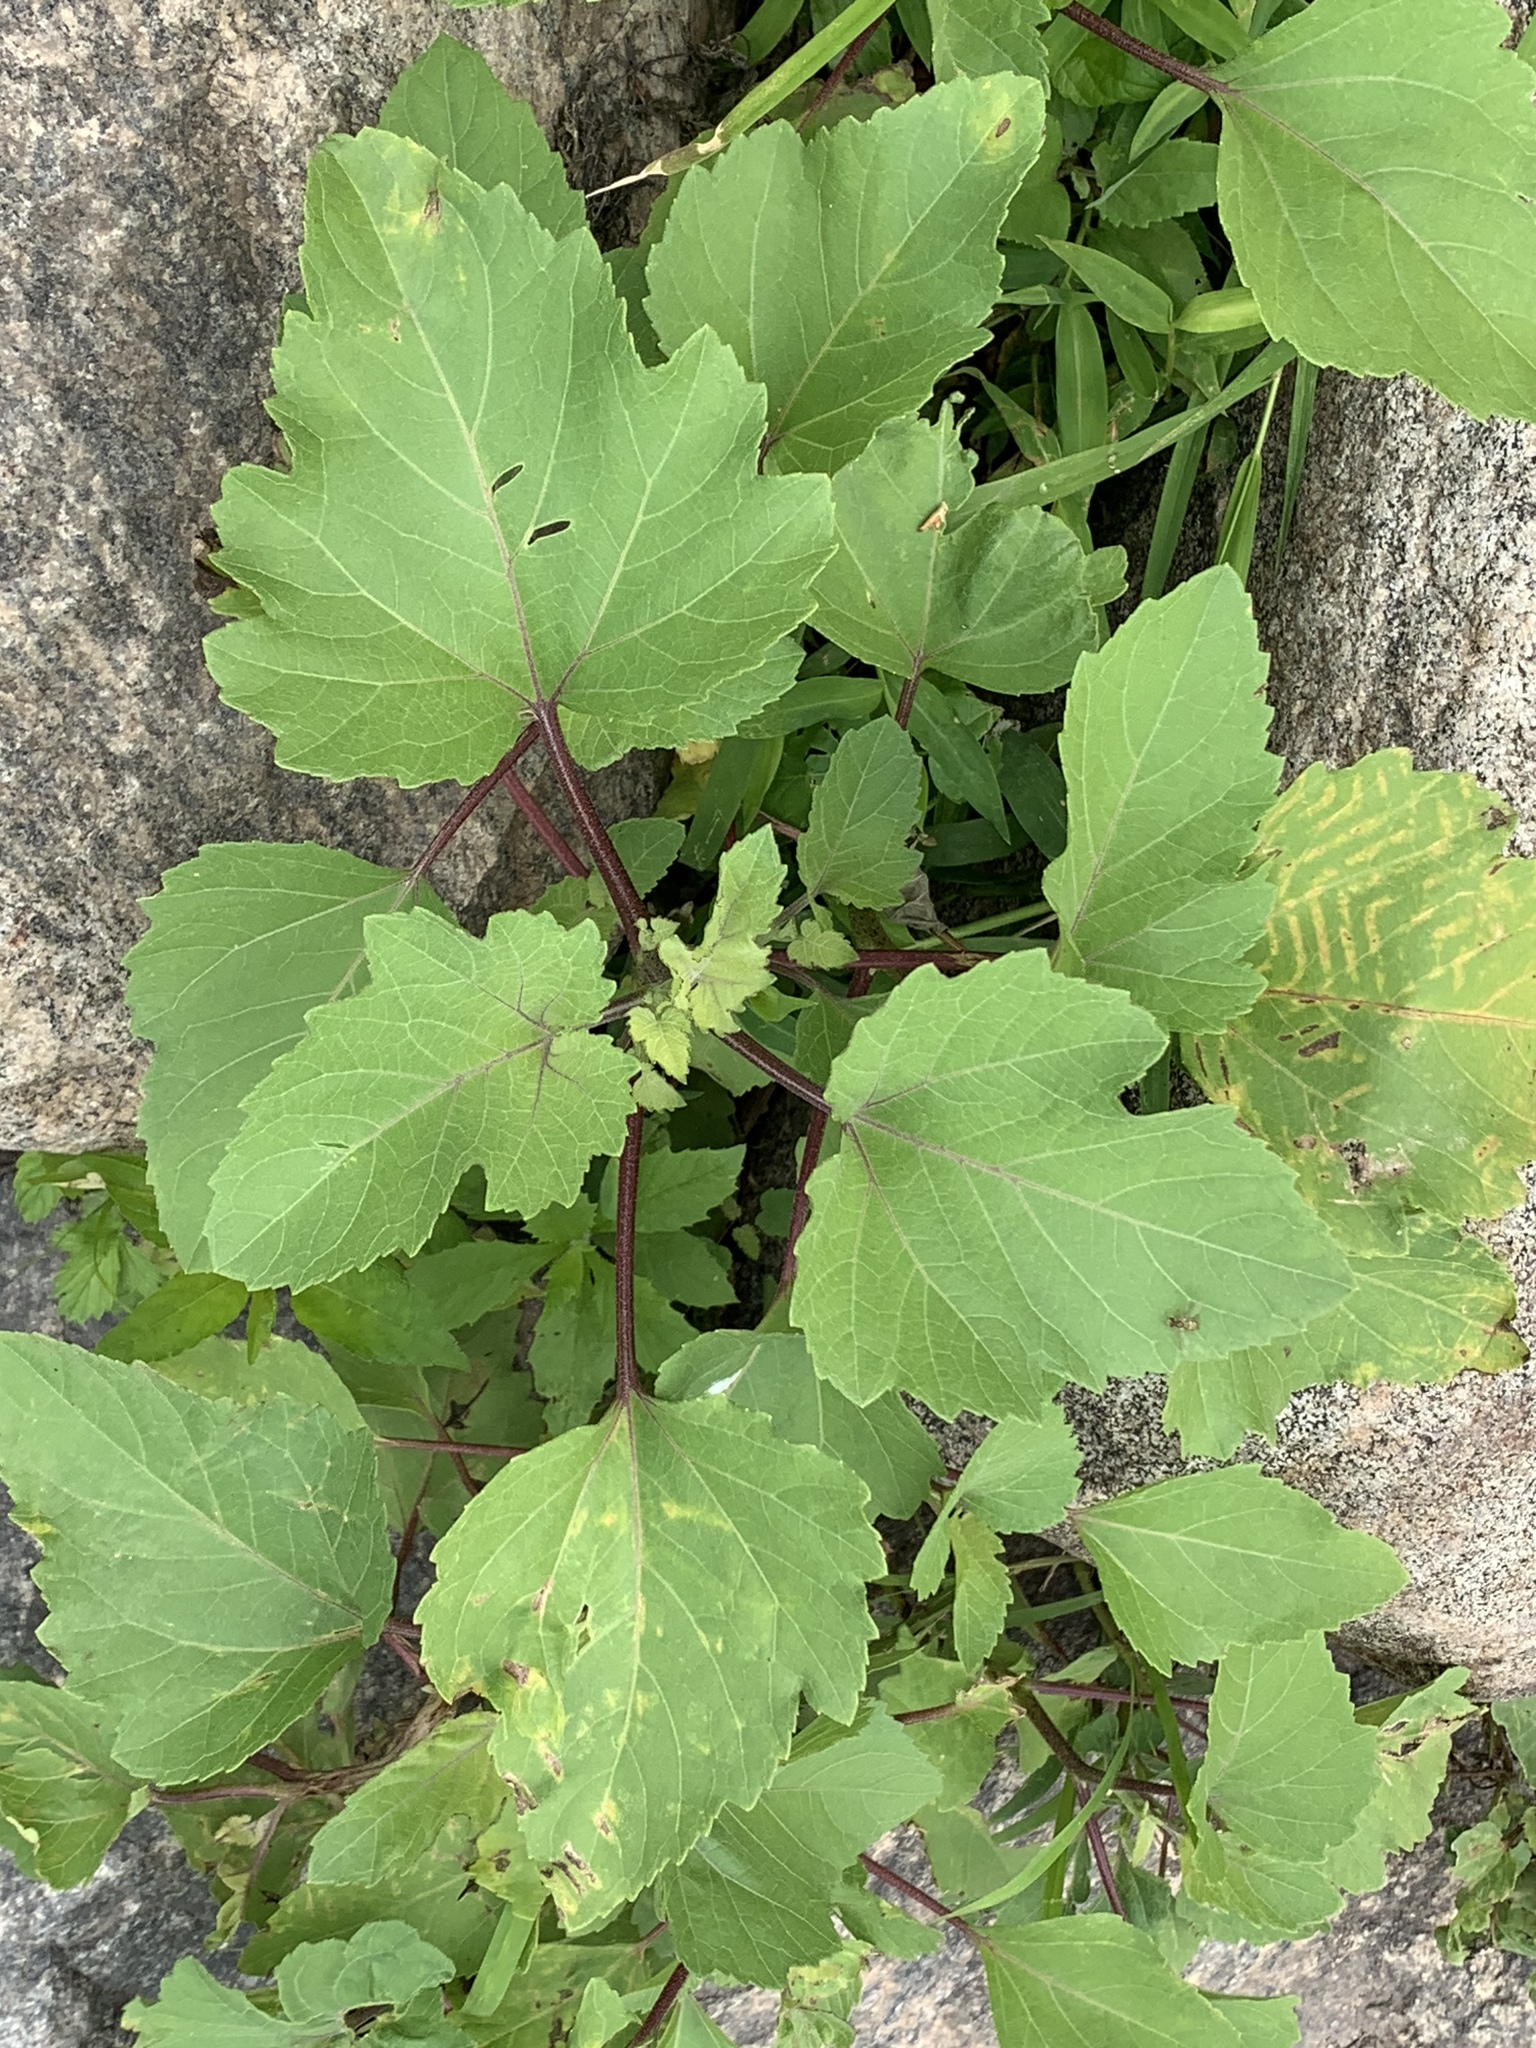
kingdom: Plantae
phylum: Tracheophyta
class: Magnoliopsida
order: Asterales
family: Asteraceae
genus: Xanthium
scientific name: Xanthium strumarium
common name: Rough cocklebur
